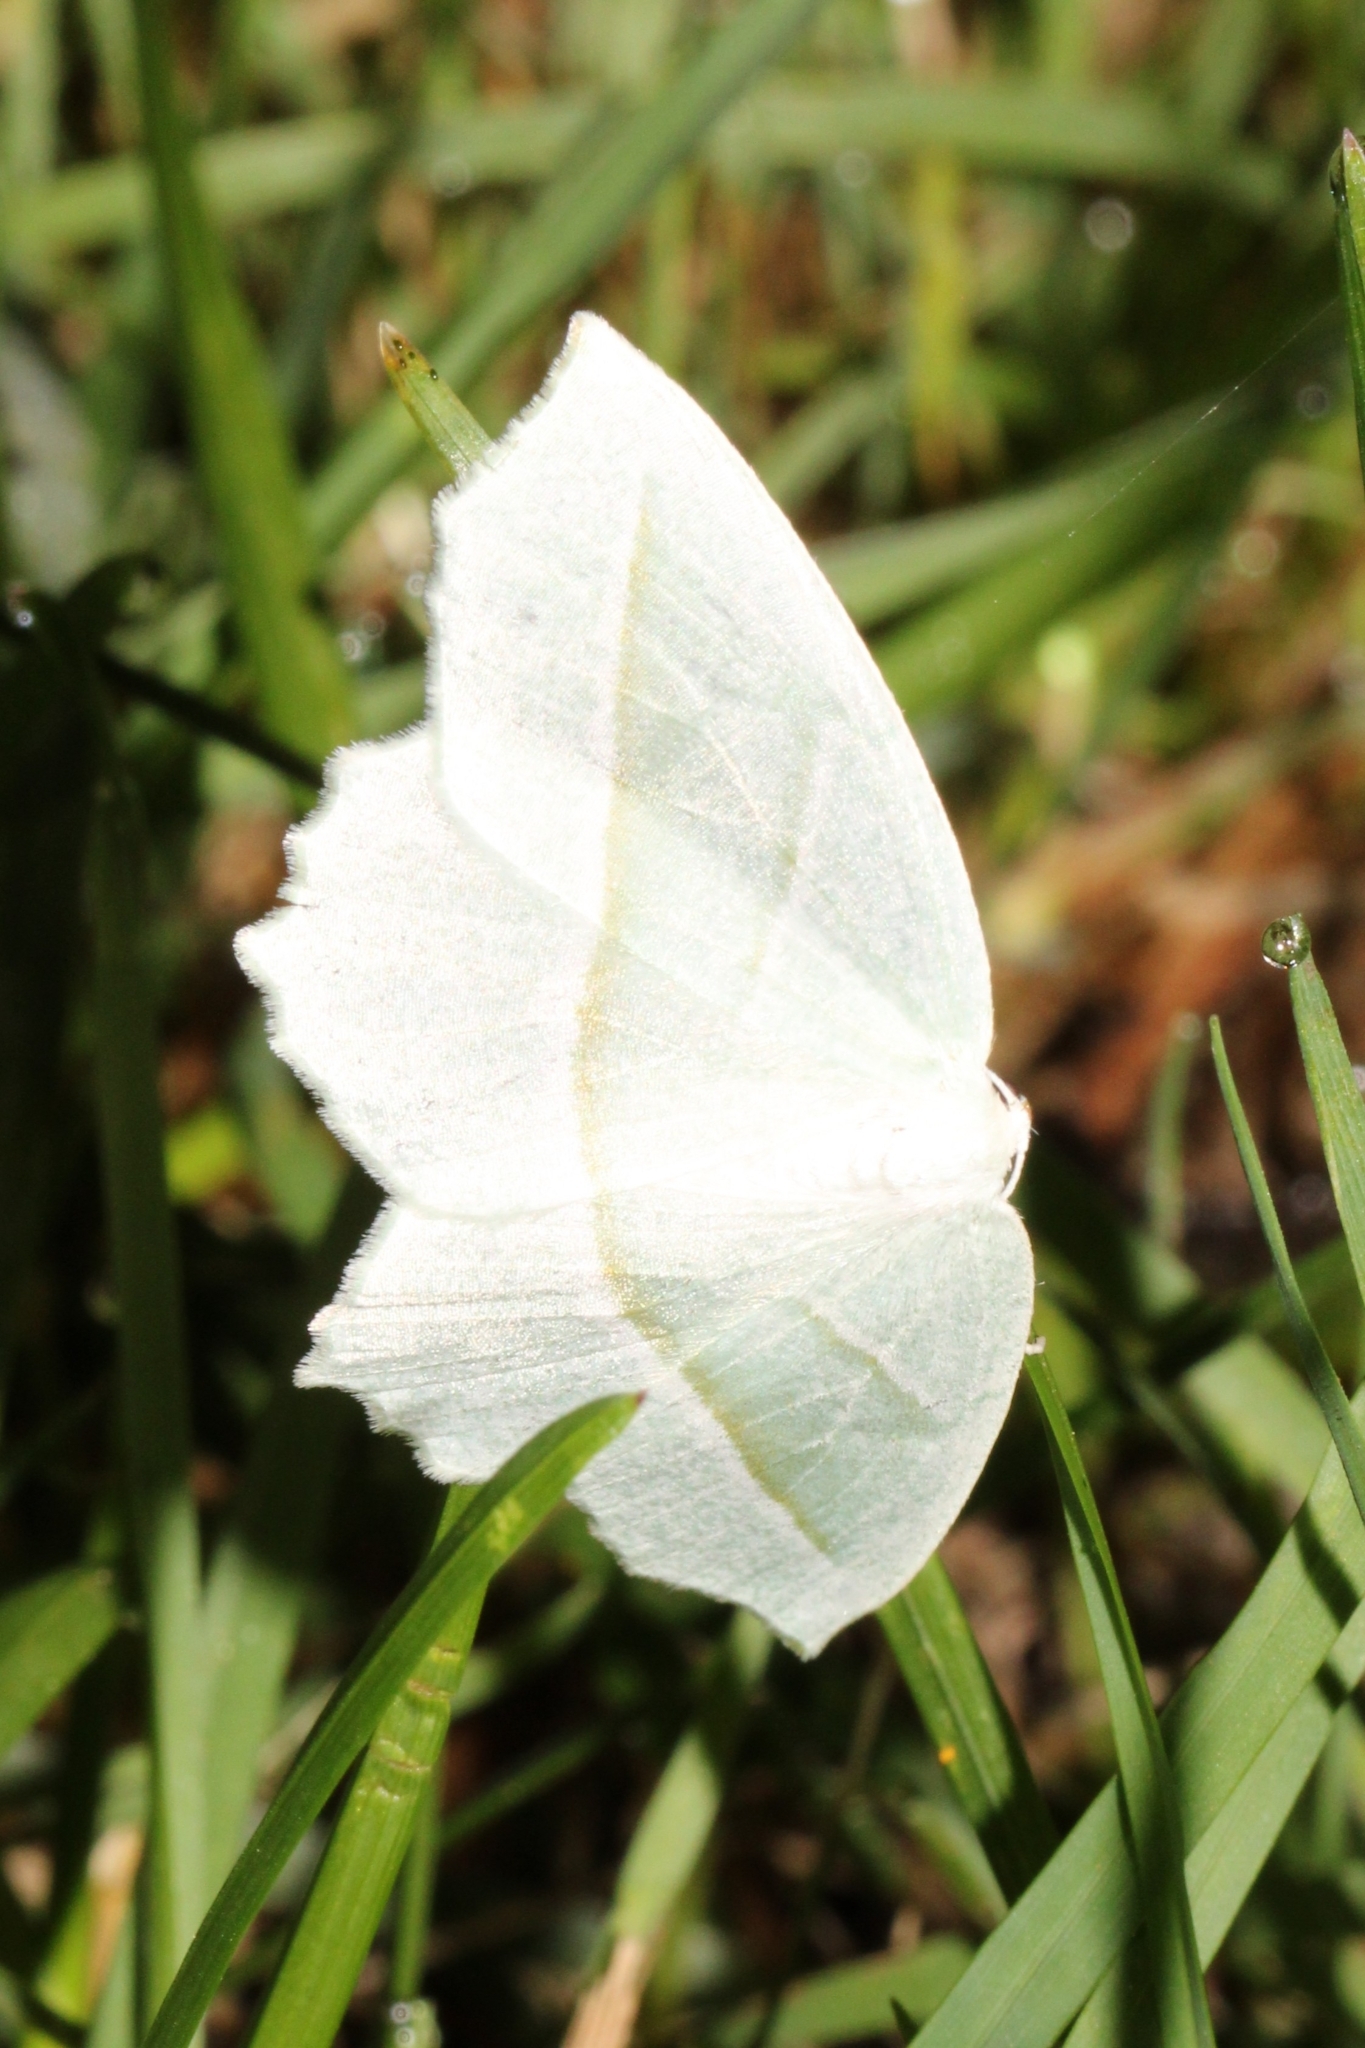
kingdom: Animalia
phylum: Arthropoda
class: Insecta
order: Lepidoptera
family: Geometridae
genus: Campaea
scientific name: Campaea perlata
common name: Fringed looper
